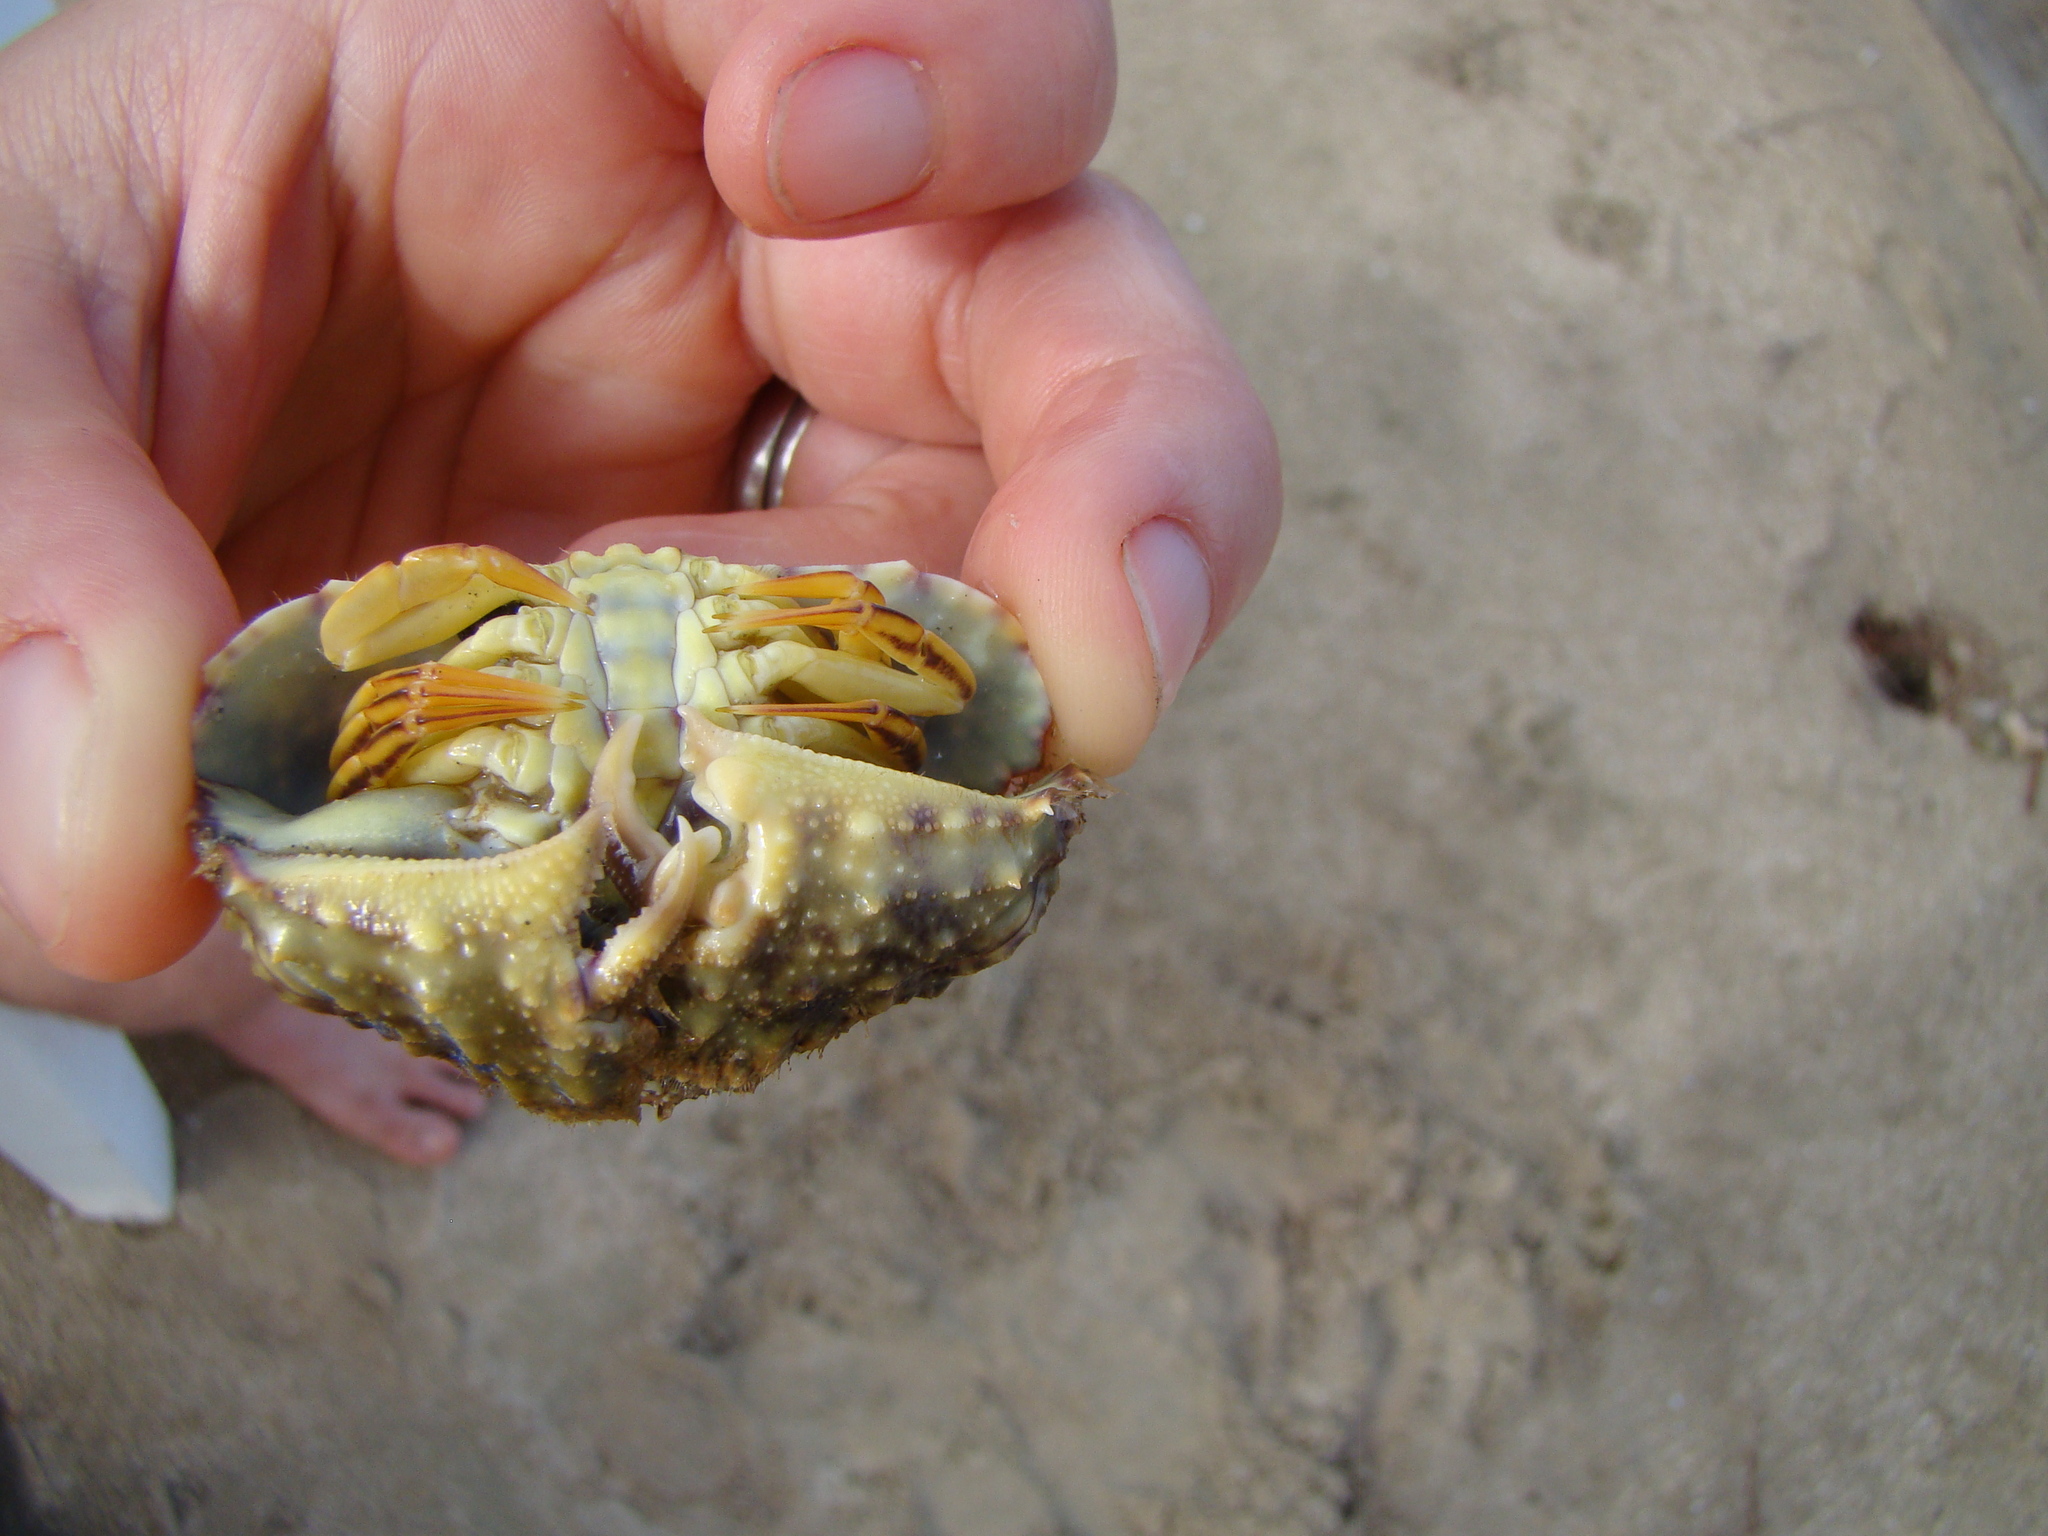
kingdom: Animalia
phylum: Arthropoda
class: Malacostraca
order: Decapoda
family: Calappidae
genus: Calappa
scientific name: Calappa hepatica
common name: Smooth box crab
